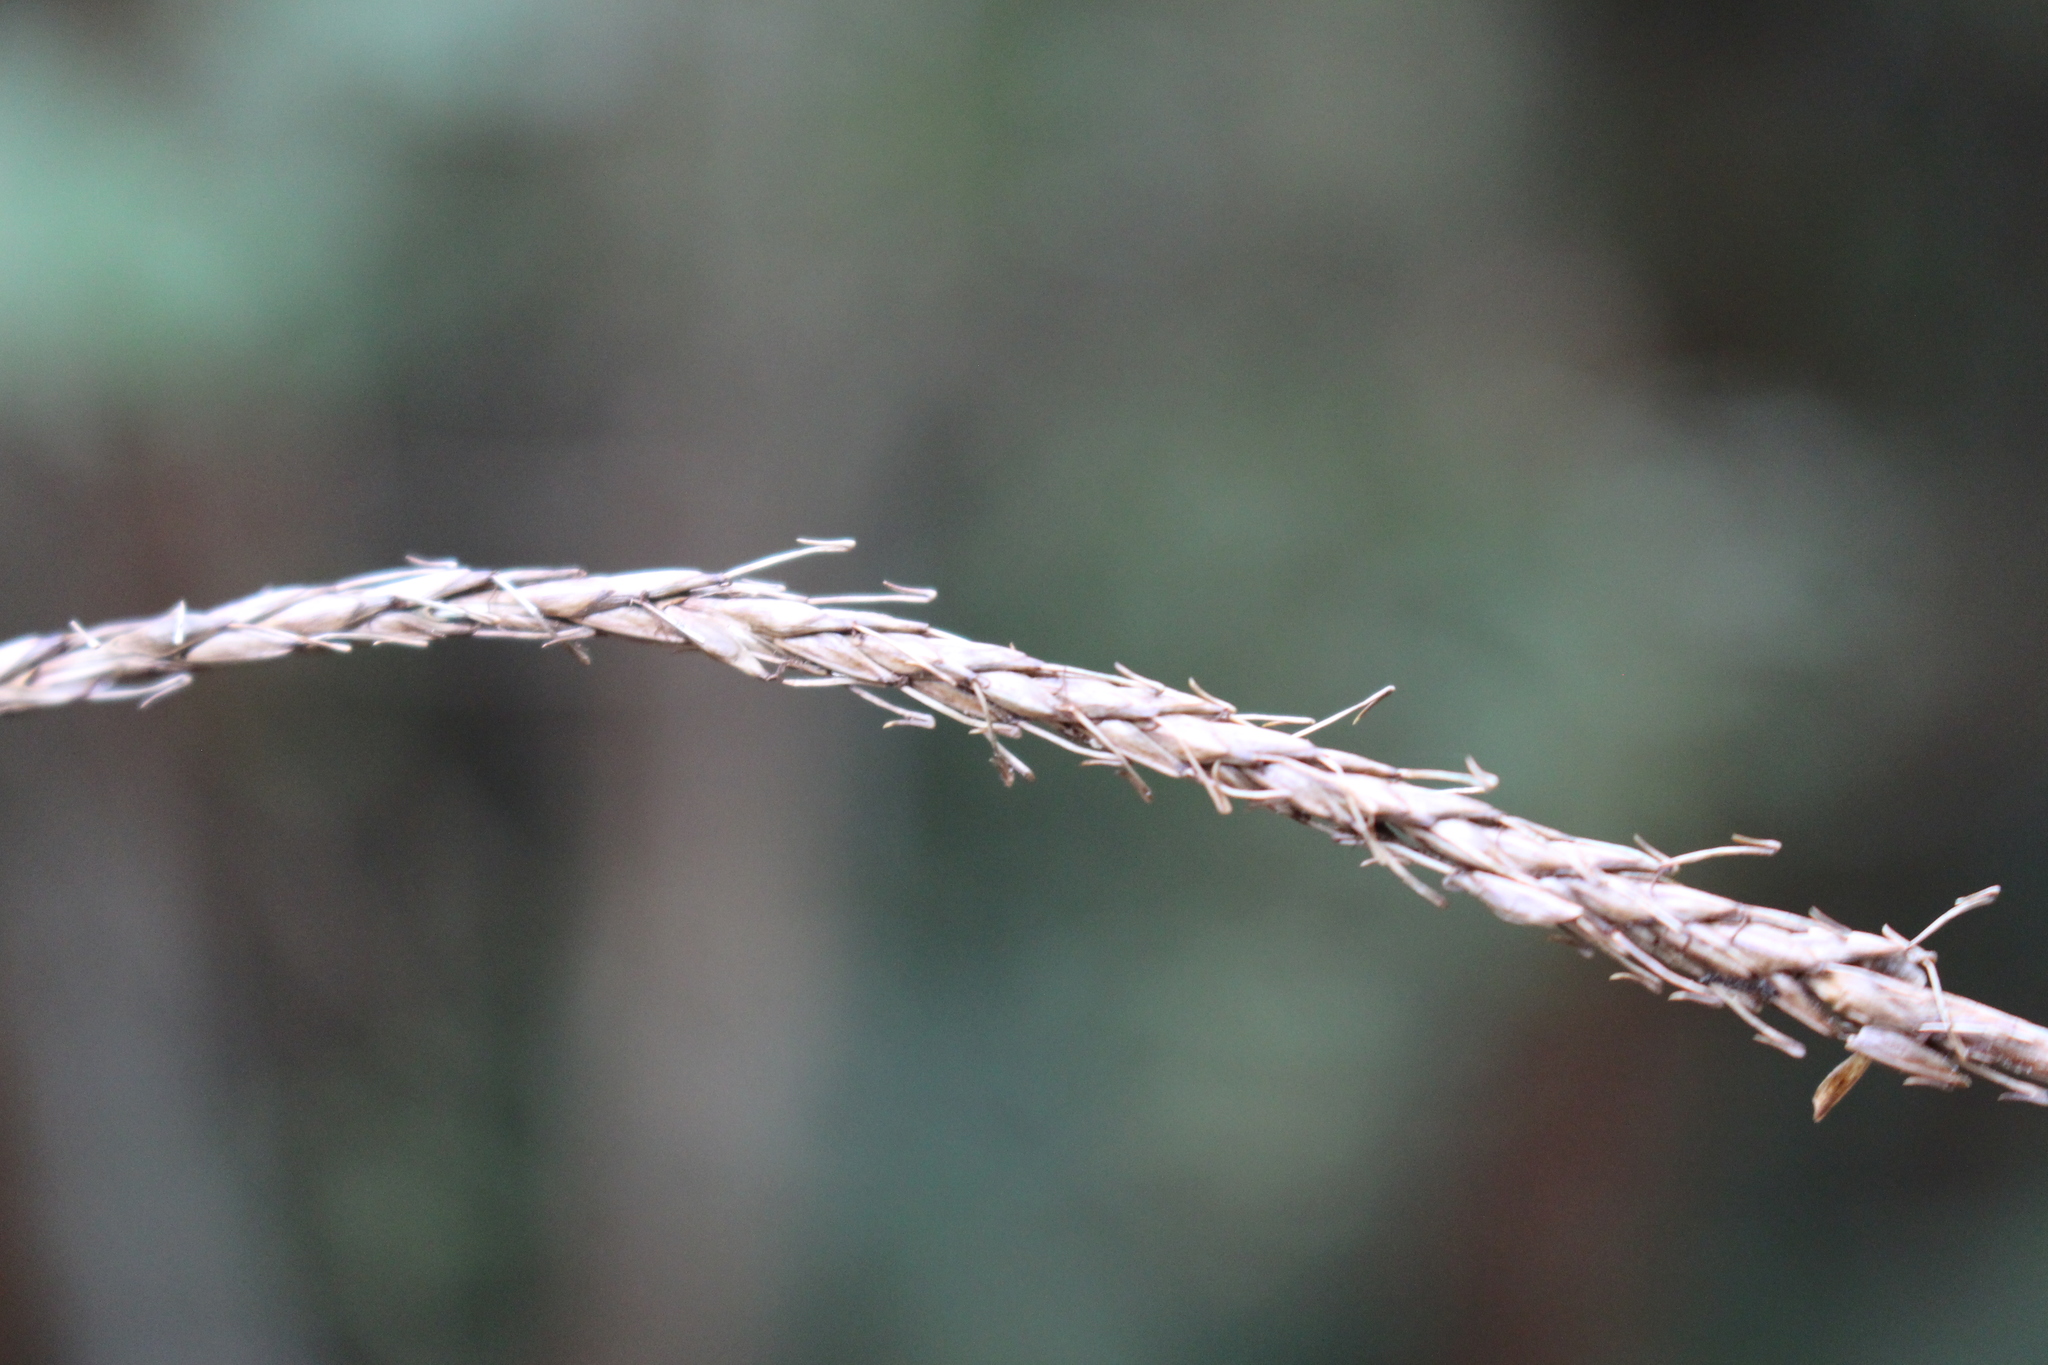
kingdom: Plantae
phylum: Tracheophyta
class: Liliopsida
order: Poales
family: Cyperaceae
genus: Carex
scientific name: Carex uncinata
